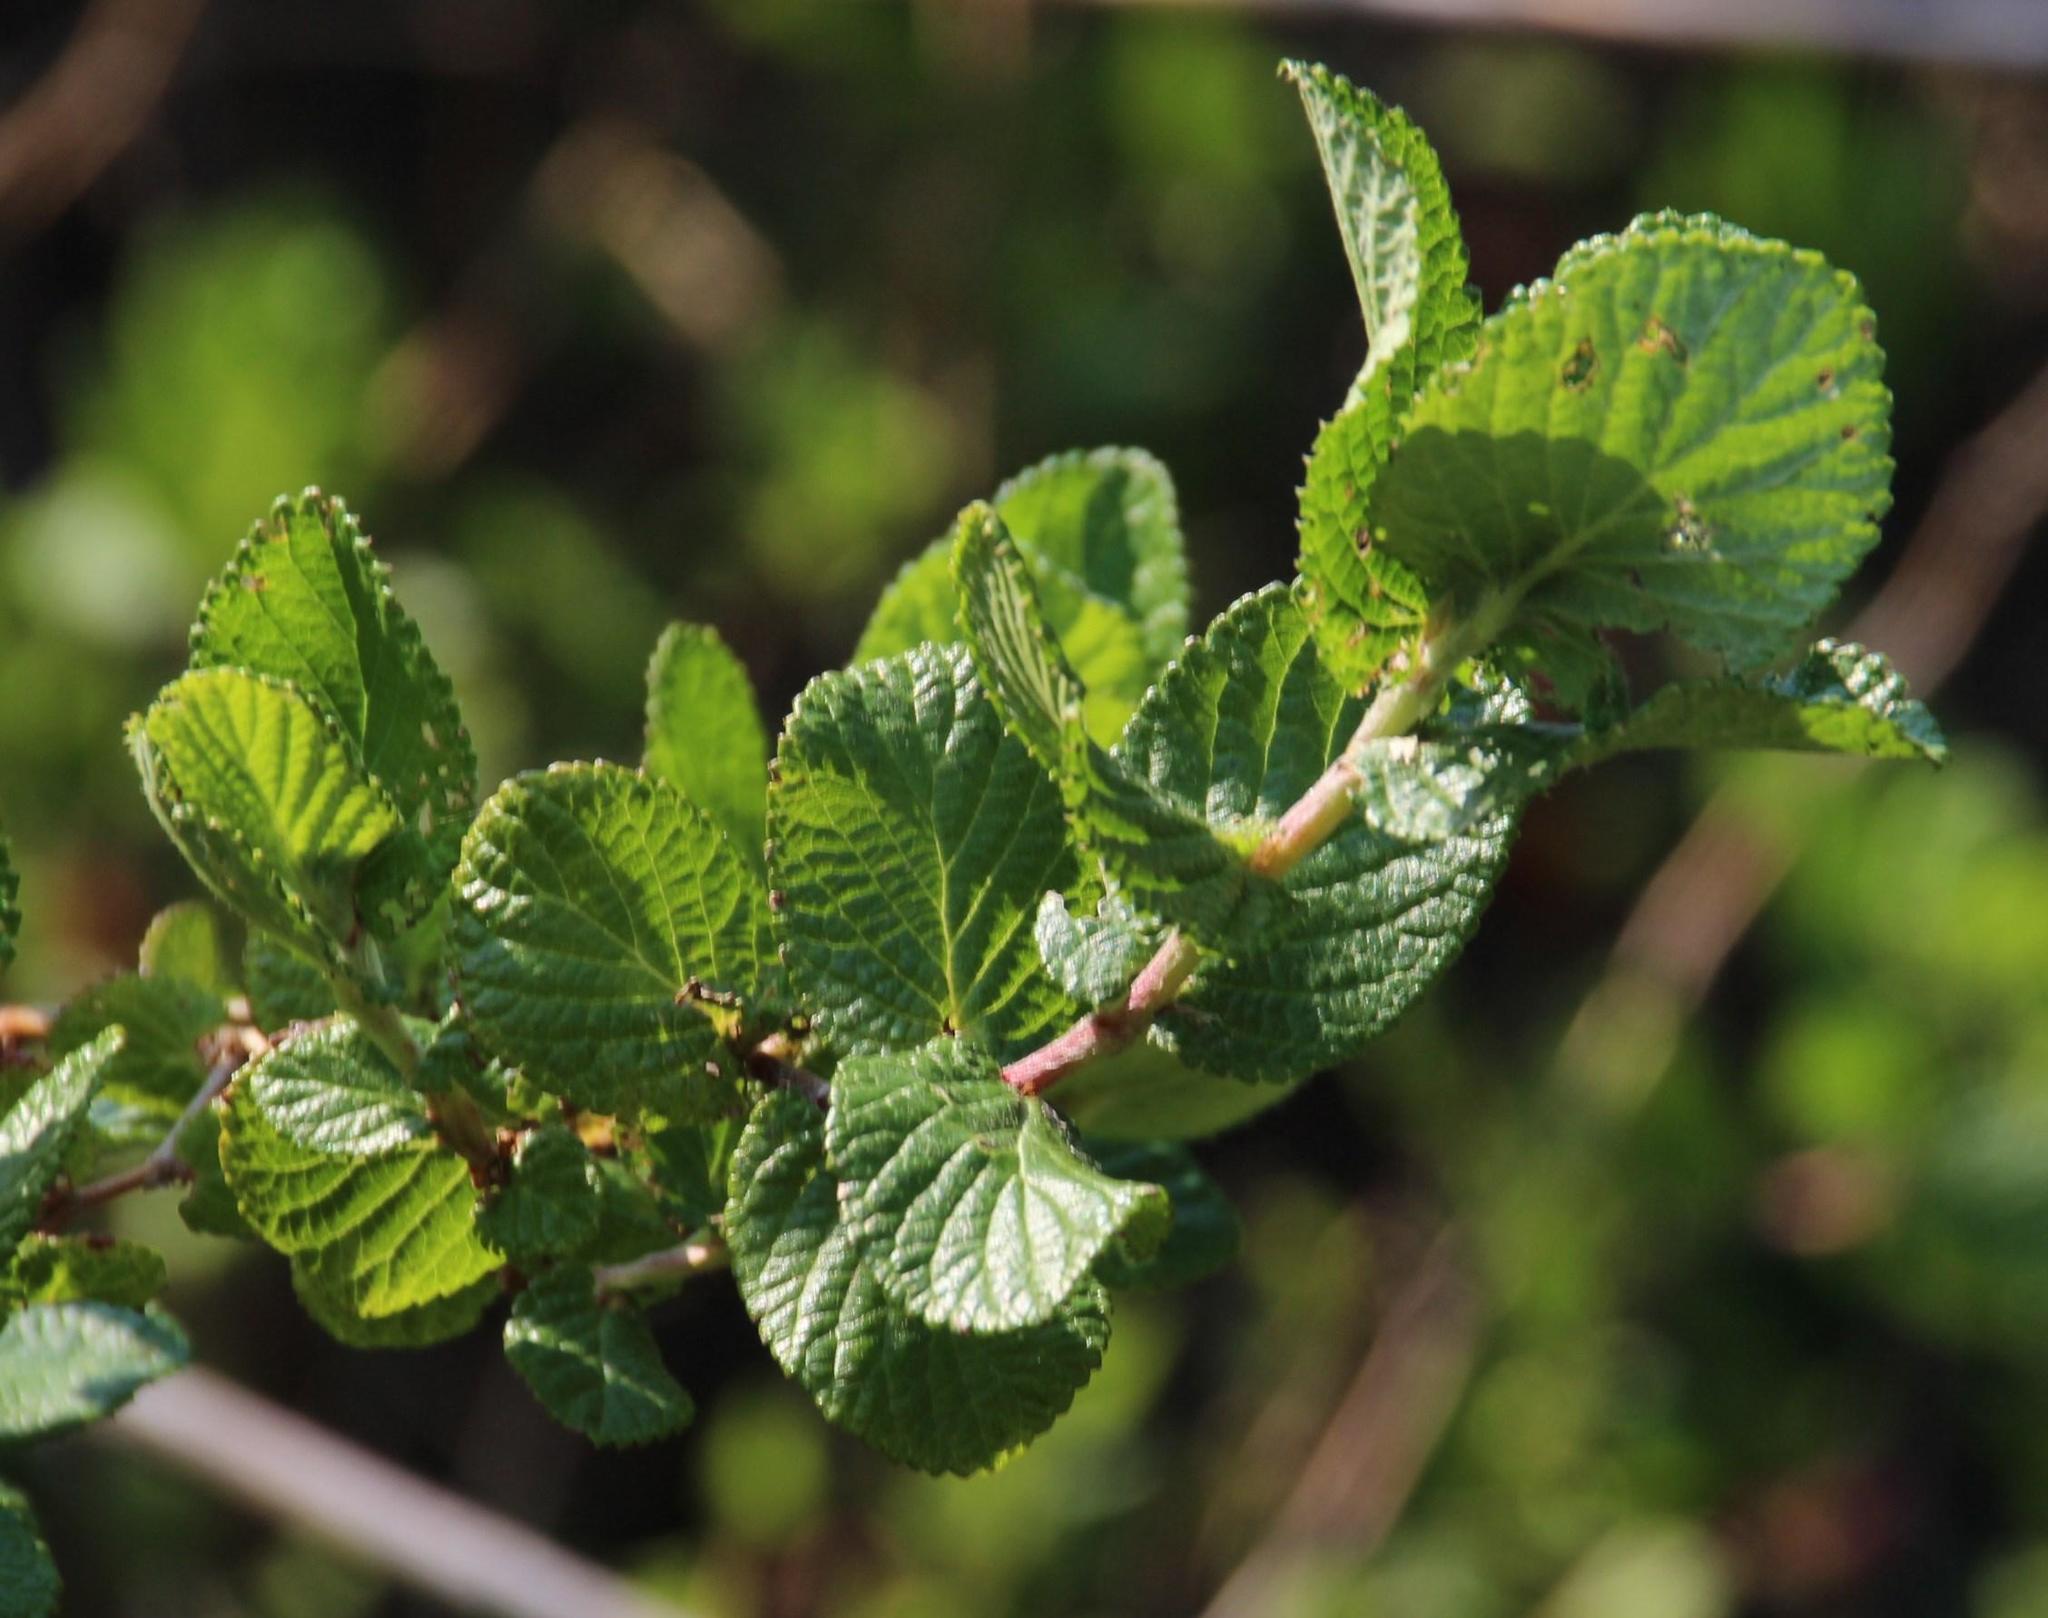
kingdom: Plantae
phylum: Tracheophyta
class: Magnoliopsida
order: Rosales
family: Rosaceae
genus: Cliffortia
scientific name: Cliffortia odorata
